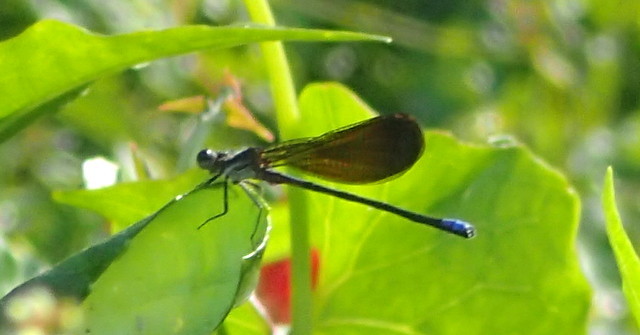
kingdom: Animalia
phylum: Arthropoda
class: Insecta
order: Odonata
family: Coenagrionidae
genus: Argia
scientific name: Argia fumipennis
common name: Variable dancer
